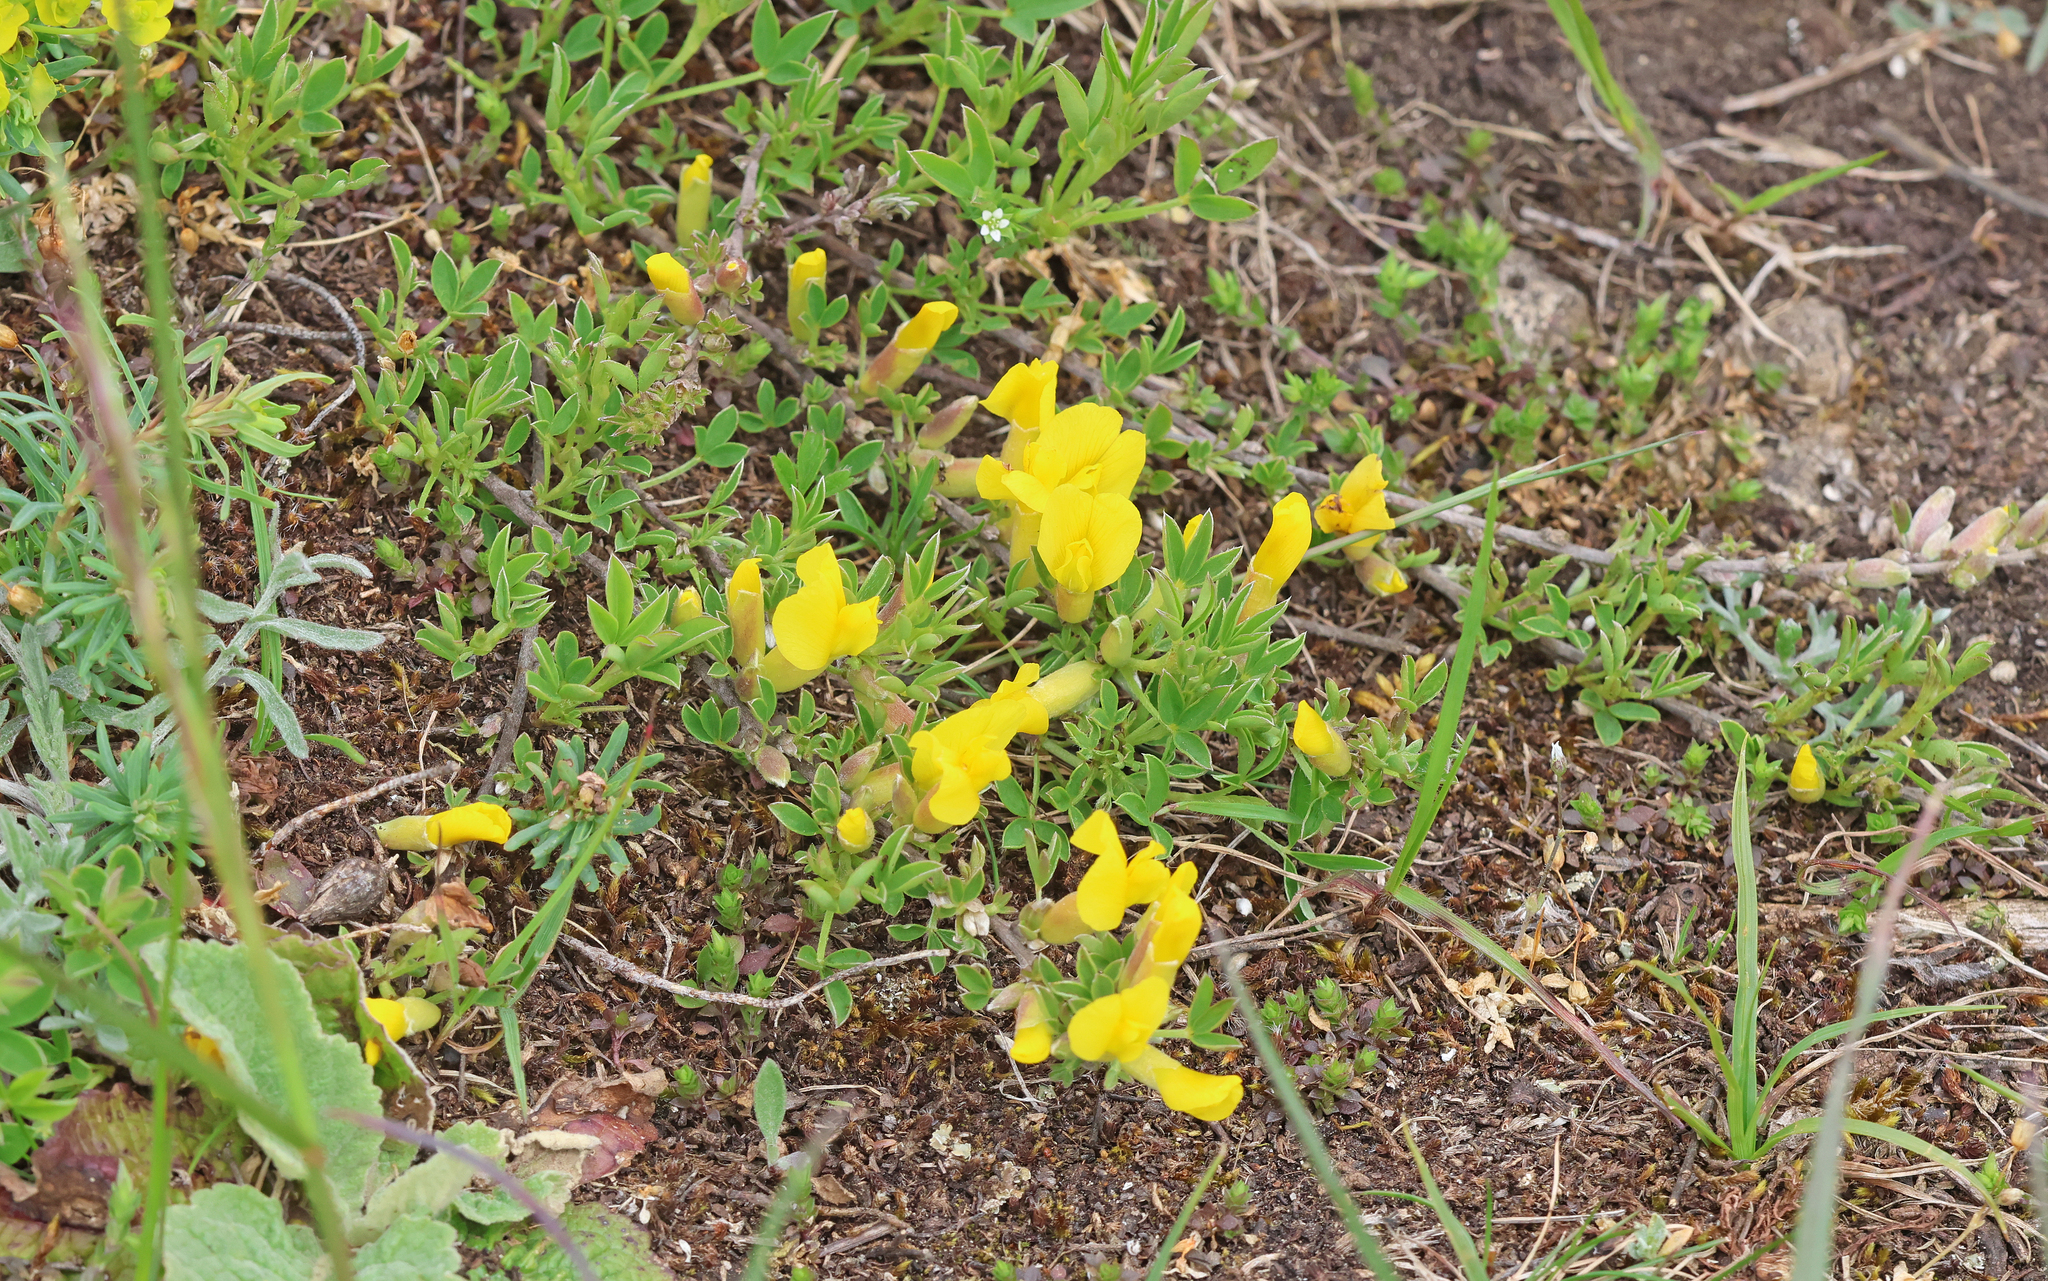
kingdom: Plantae
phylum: Tracheophyta
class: Magnoliopsida
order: Fabales
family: Fabaceae
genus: Chamaecytisus
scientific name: Chamaecytisus ratisbonensis
